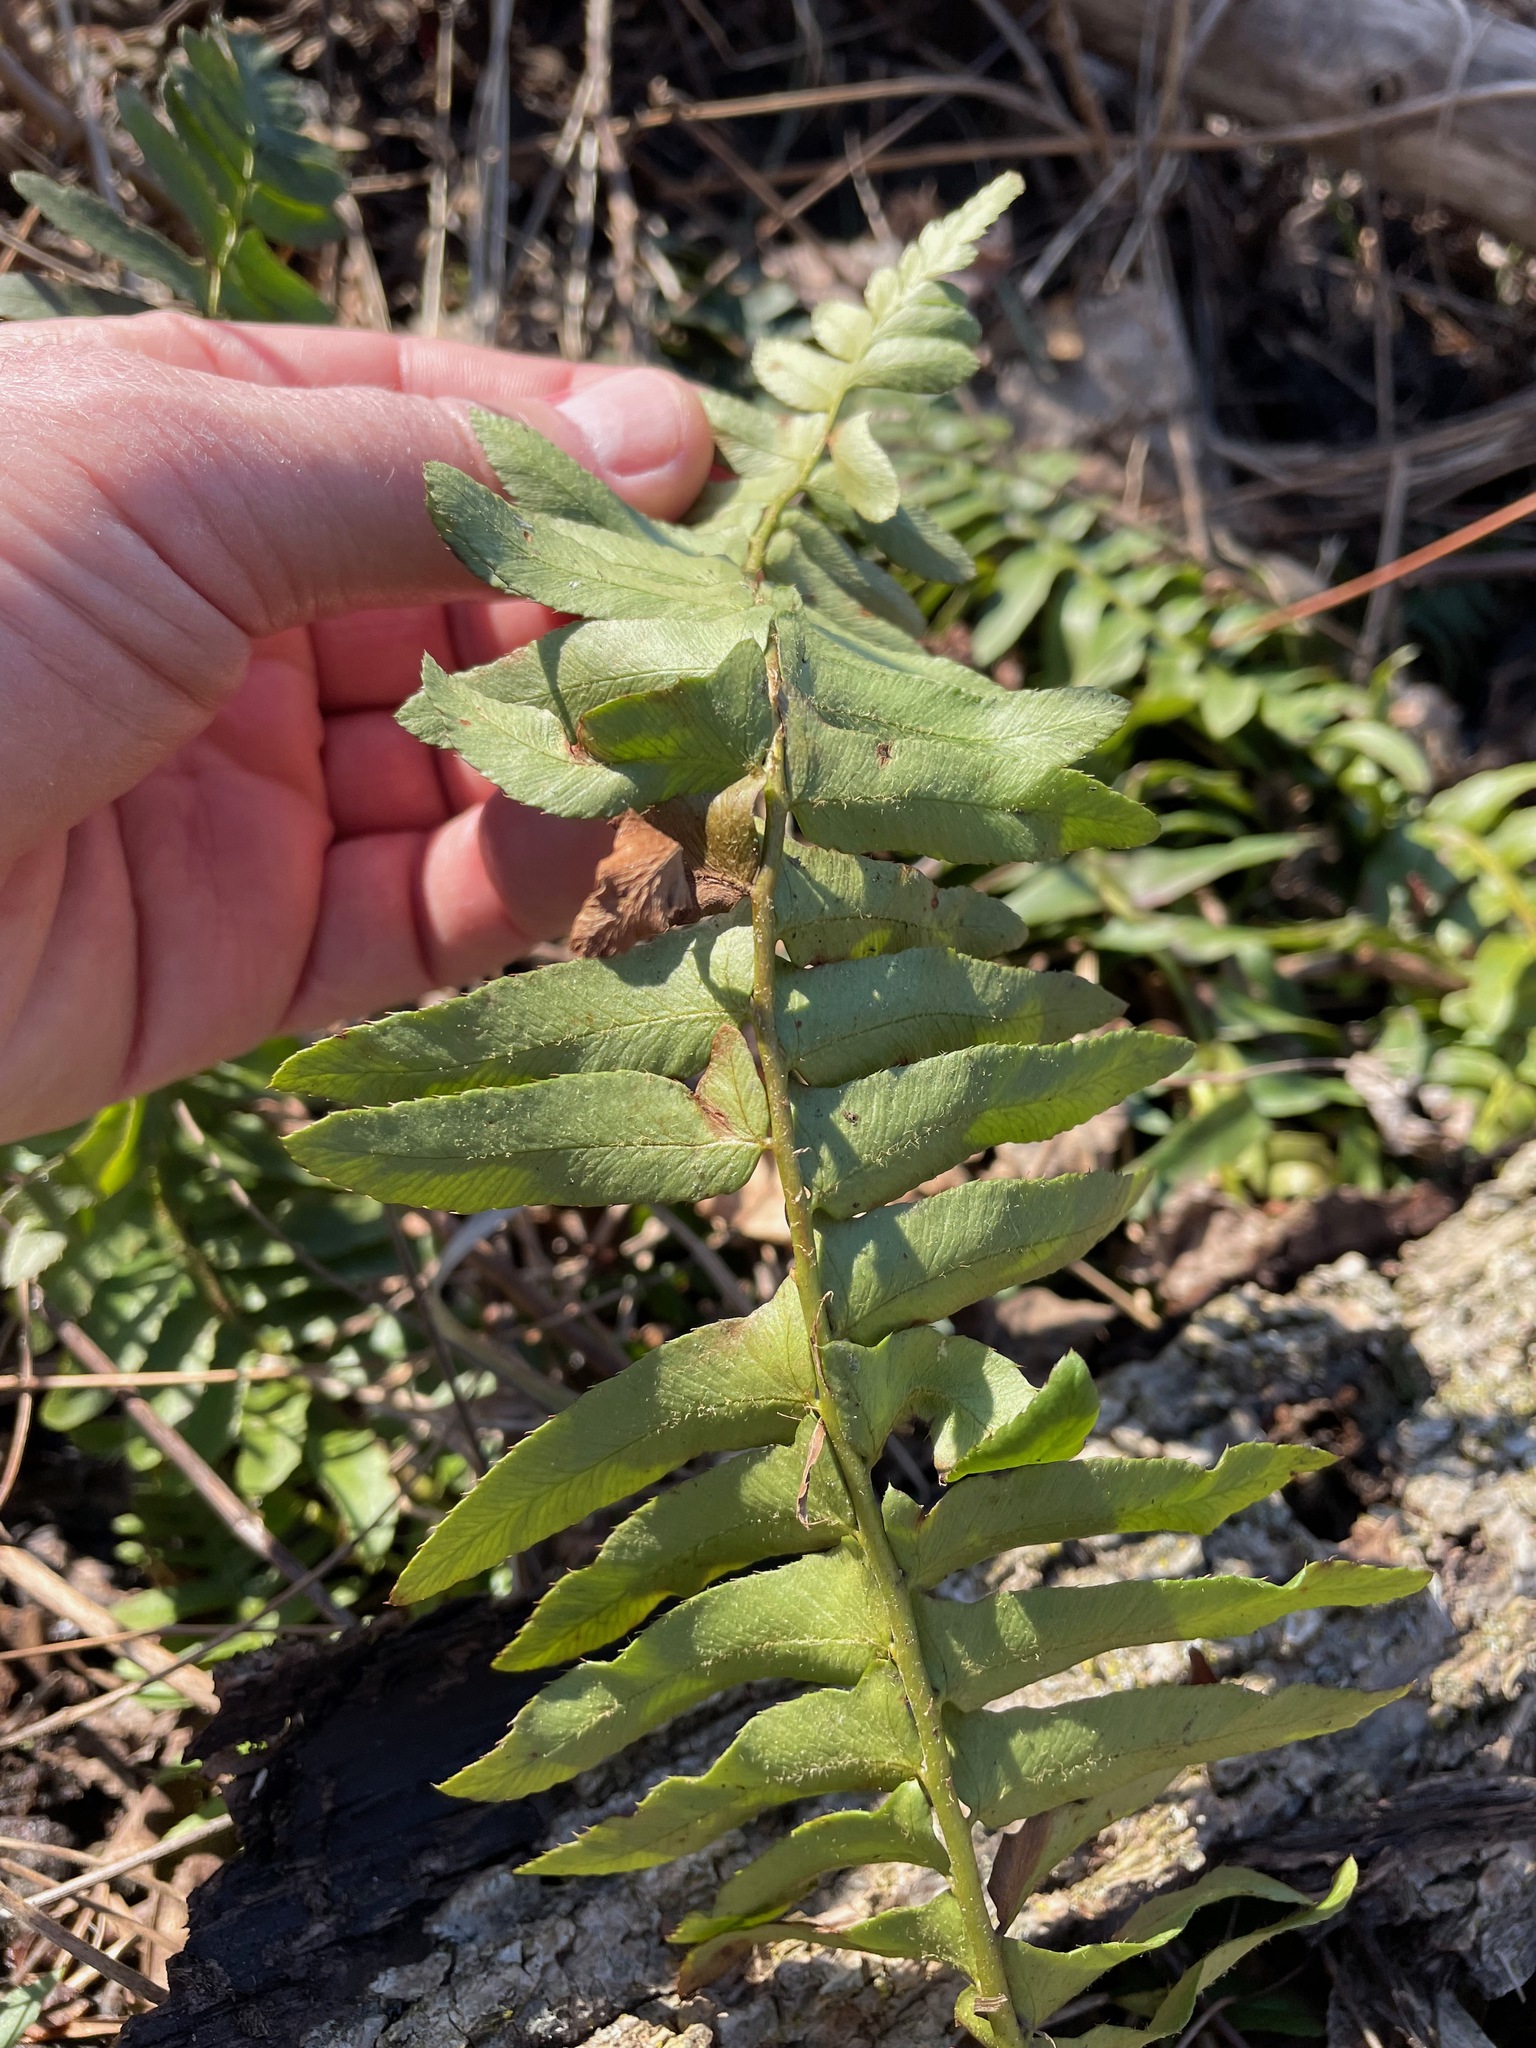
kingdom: Plantae
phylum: Tracheophyta
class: Polypodiopsida
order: Polypodiales
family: Dryopteridaceae
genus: Polystichum
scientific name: Polystichum acrostichoides
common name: Christmas fern
